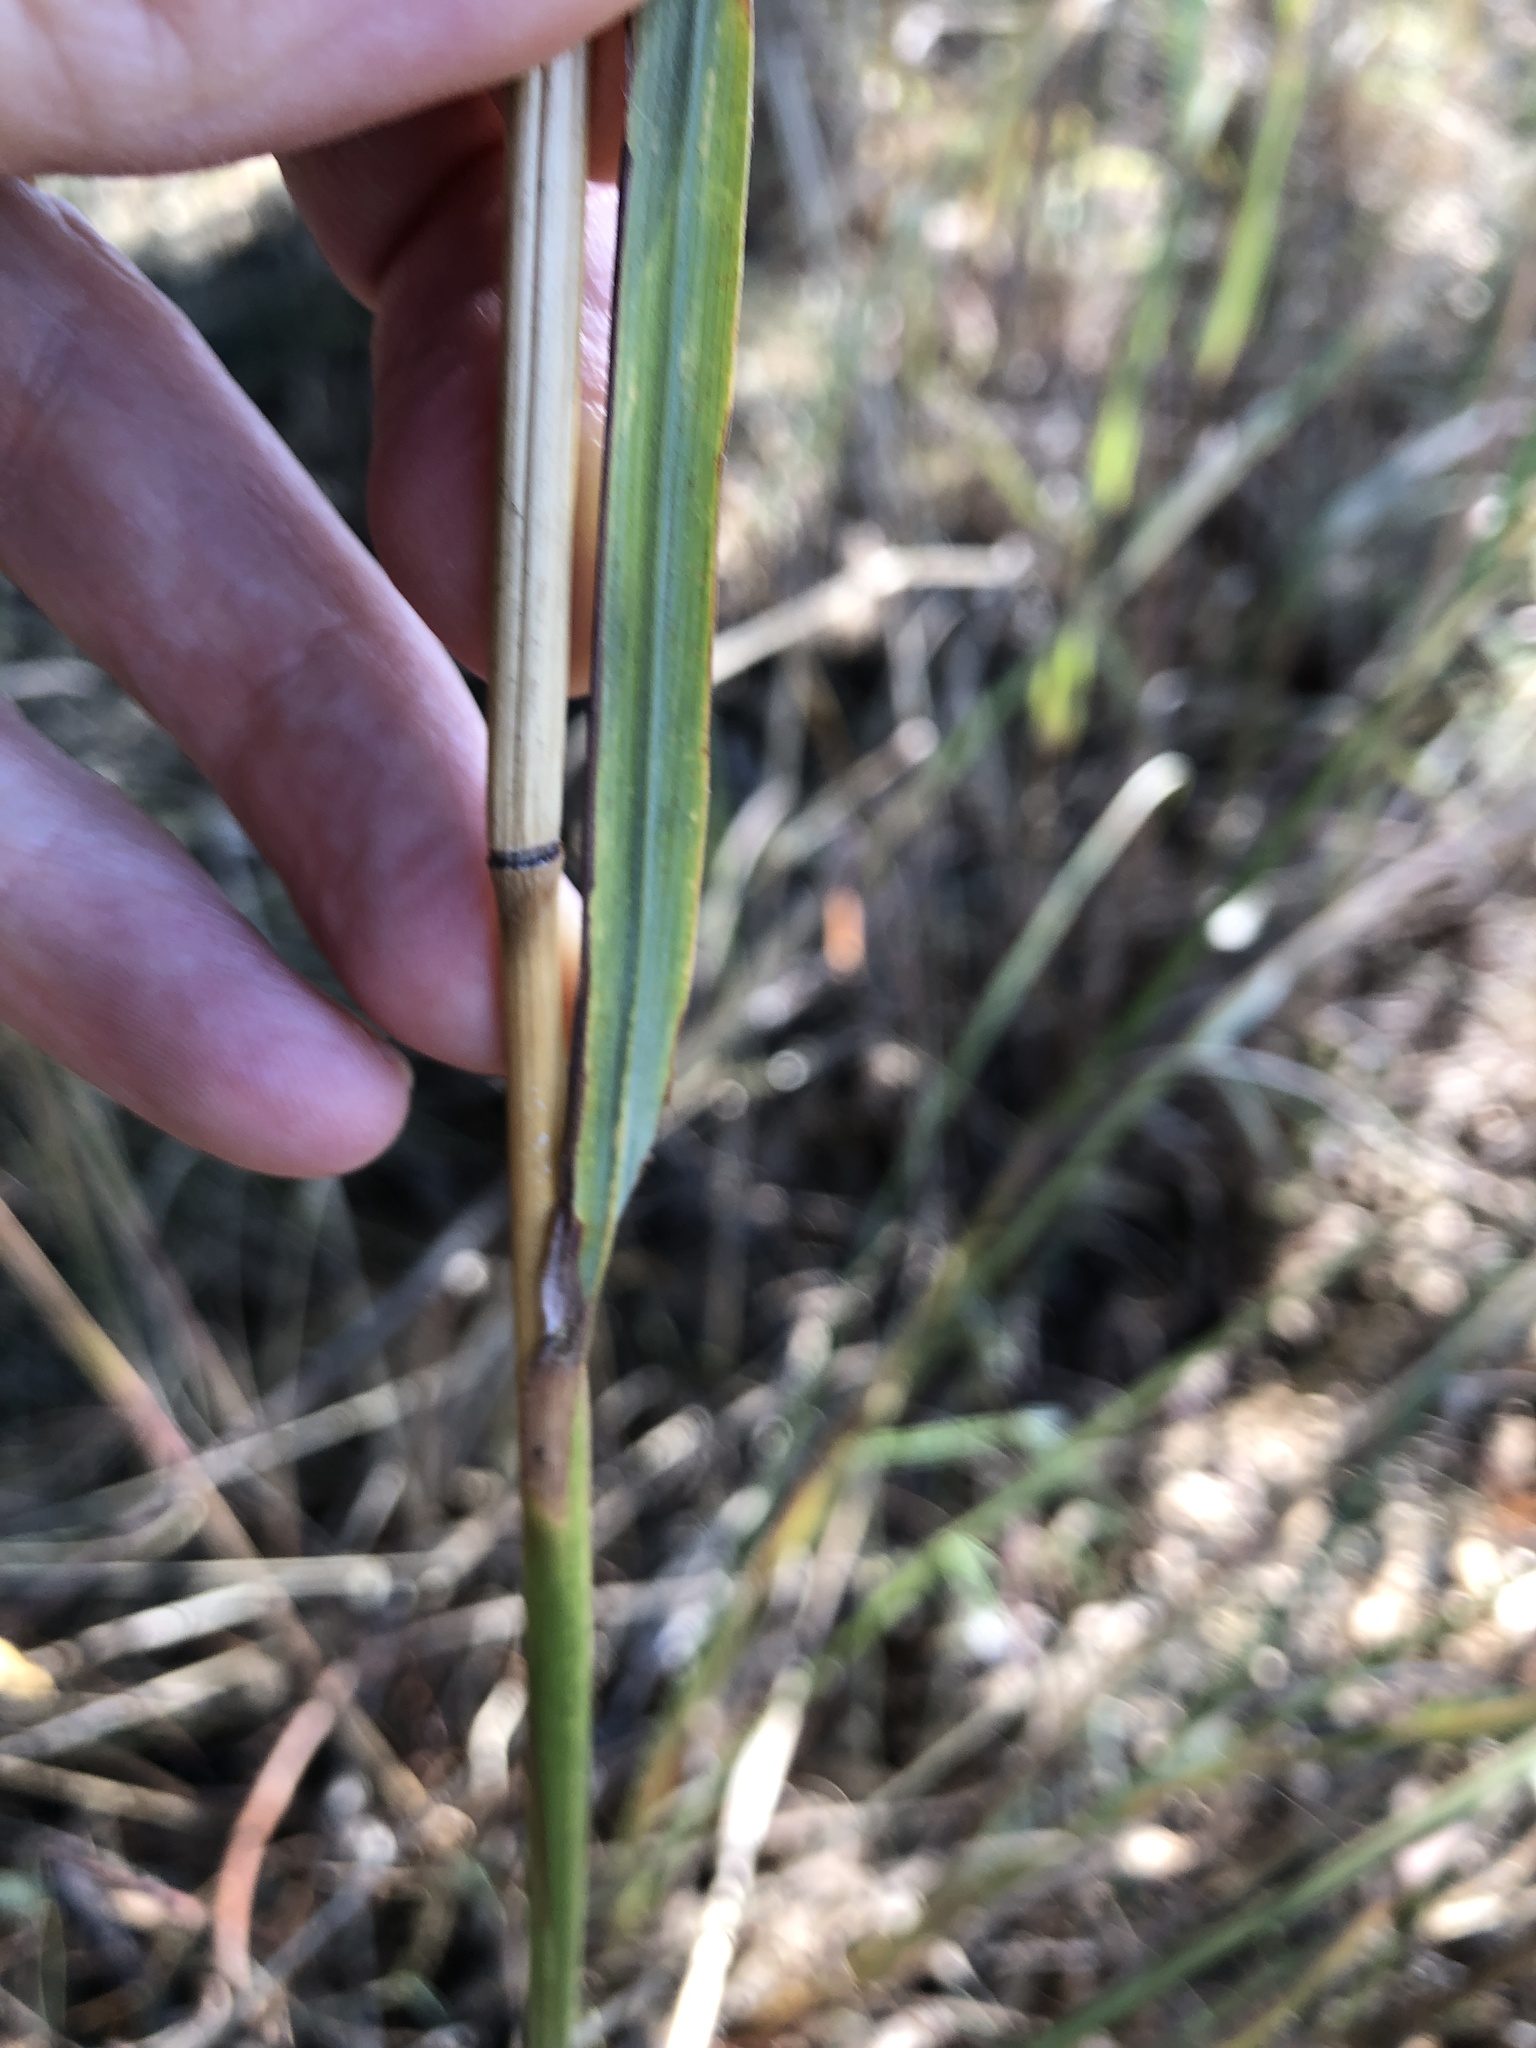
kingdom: Plantae
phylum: Tracheophyta
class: Liliopsida
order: Poales
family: Poaceae
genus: Heteropogon
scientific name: Heteropogon triticeus
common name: Sugar grass
